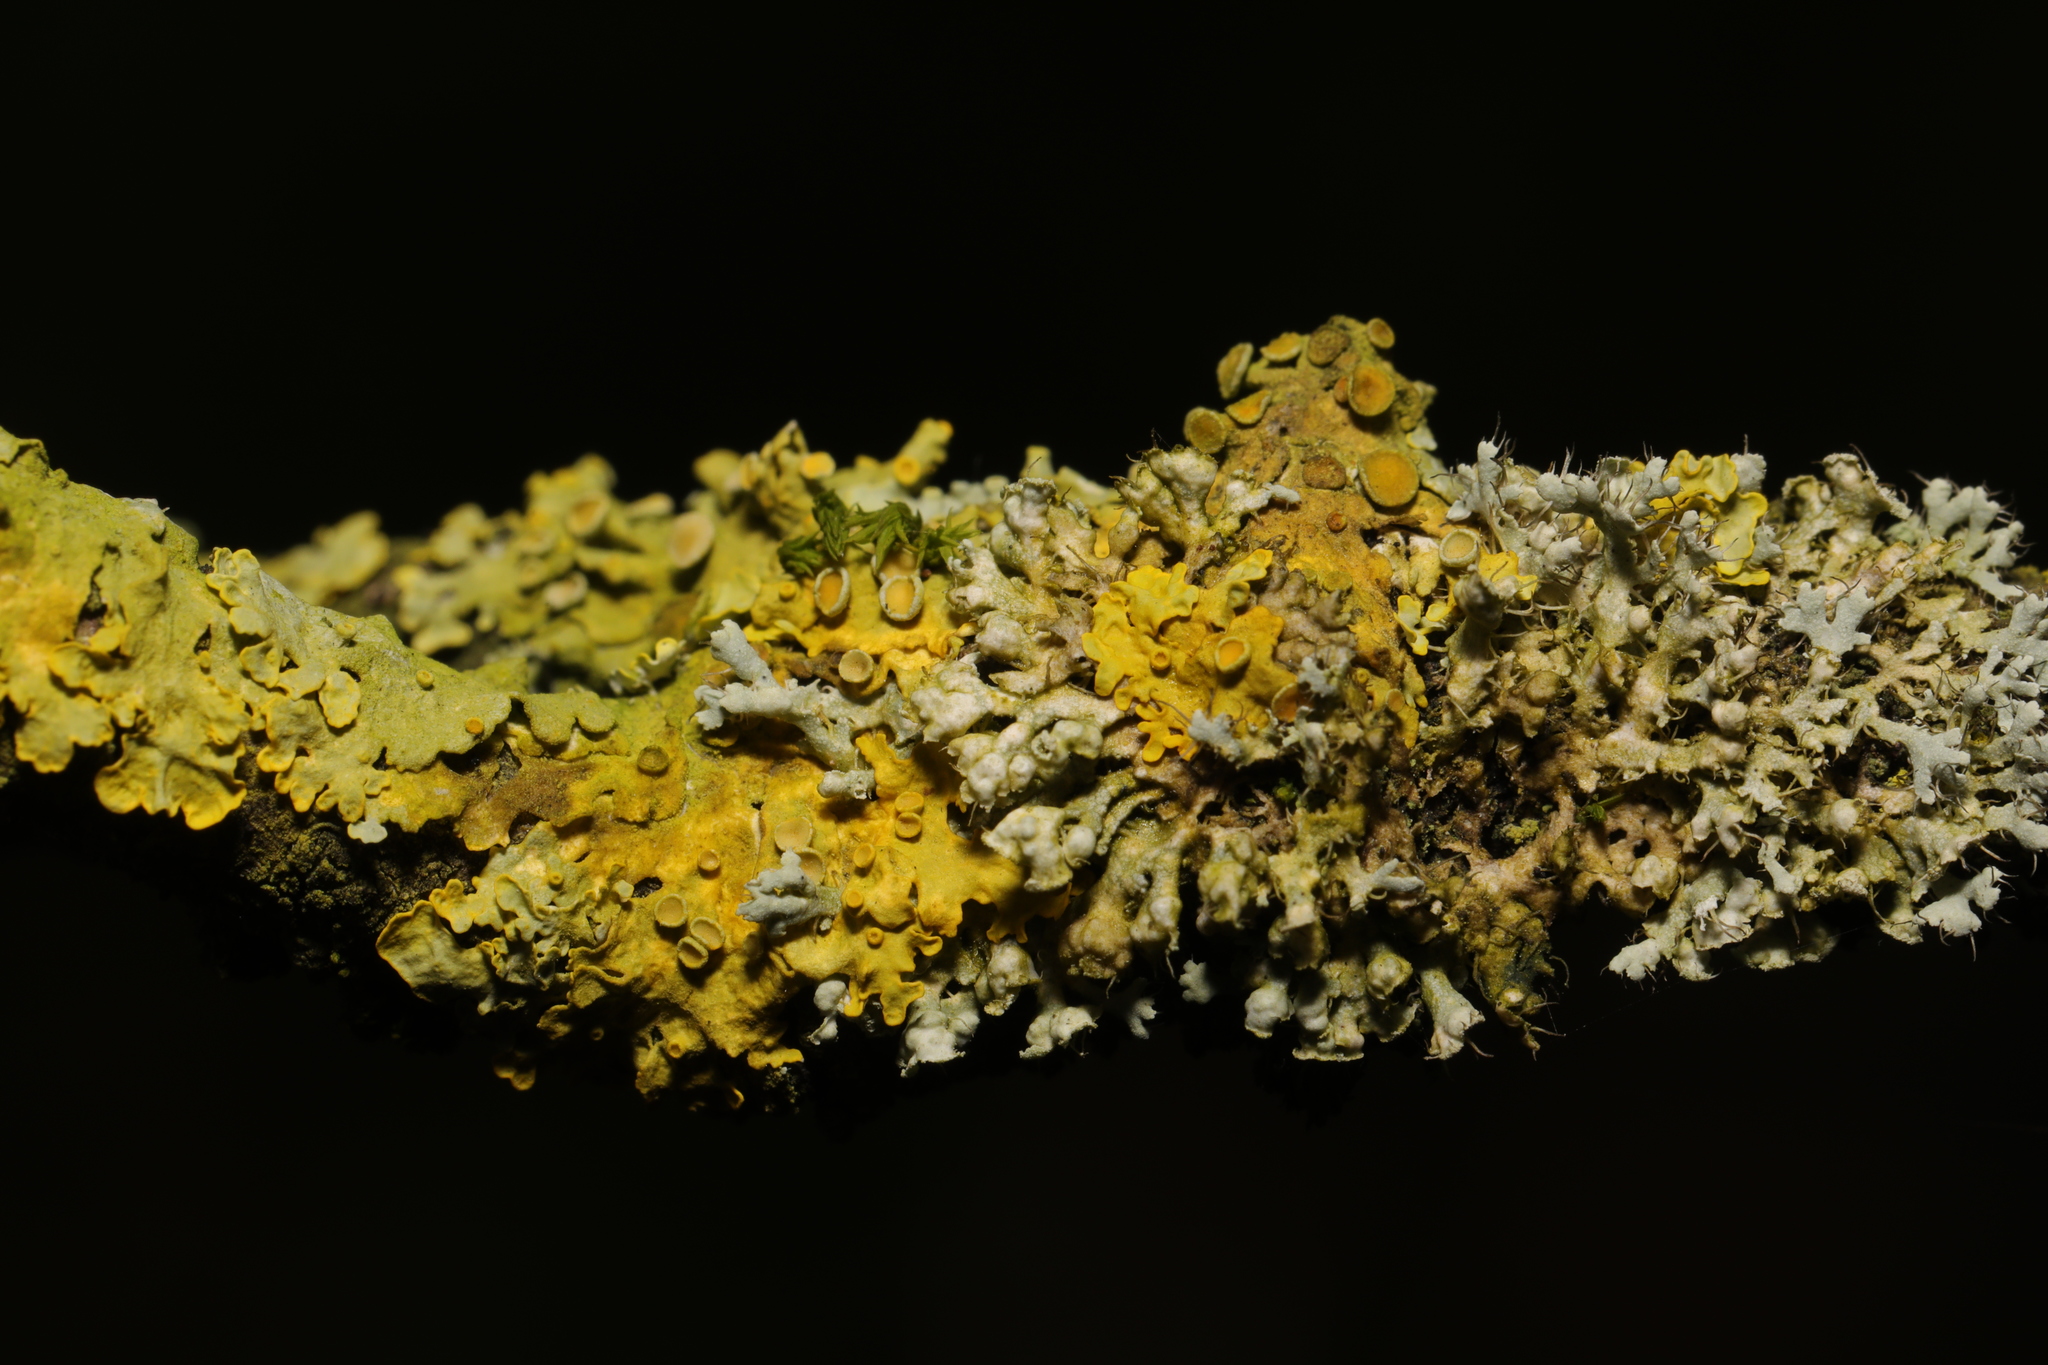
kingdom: Fungi
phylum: Ascomycota
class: Lecanoromycetes
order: Teloschistales
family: Teloschistaceae
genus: Xanthoria
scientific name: Xanthoria parietina
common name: Common orange lichen
